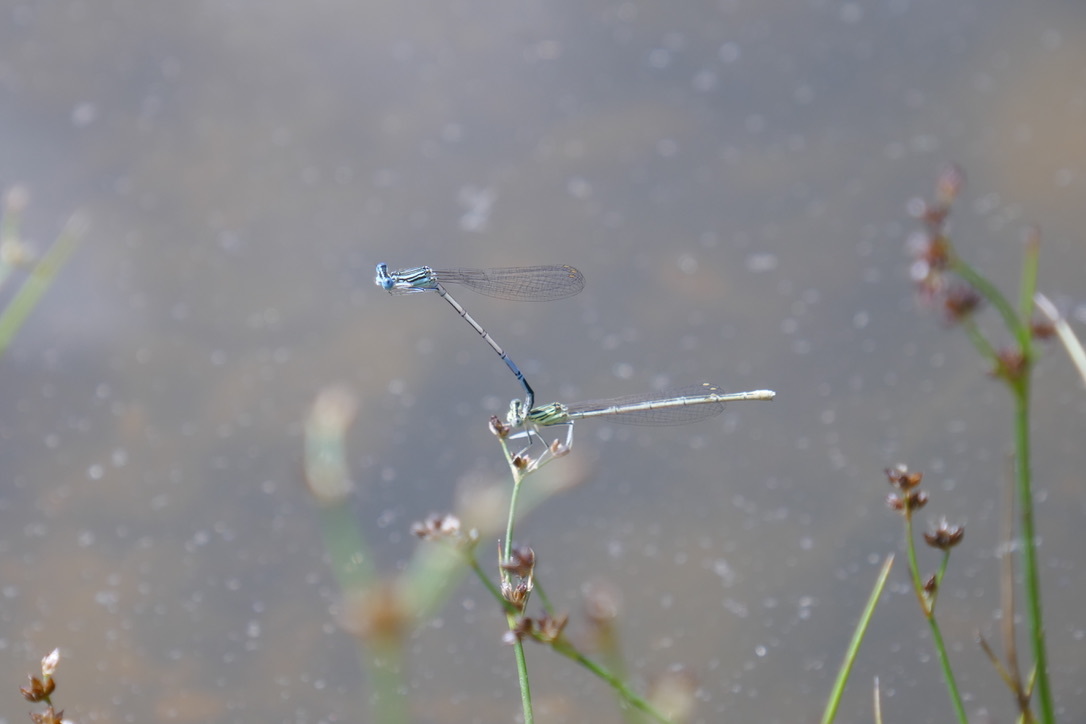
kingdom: Animalia
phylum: Arthropoda
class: Insecta
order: Odonata
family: Platycnemididae
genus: Platycnemis
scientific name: Platycnemis pennipes
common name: White-legged damselfly
